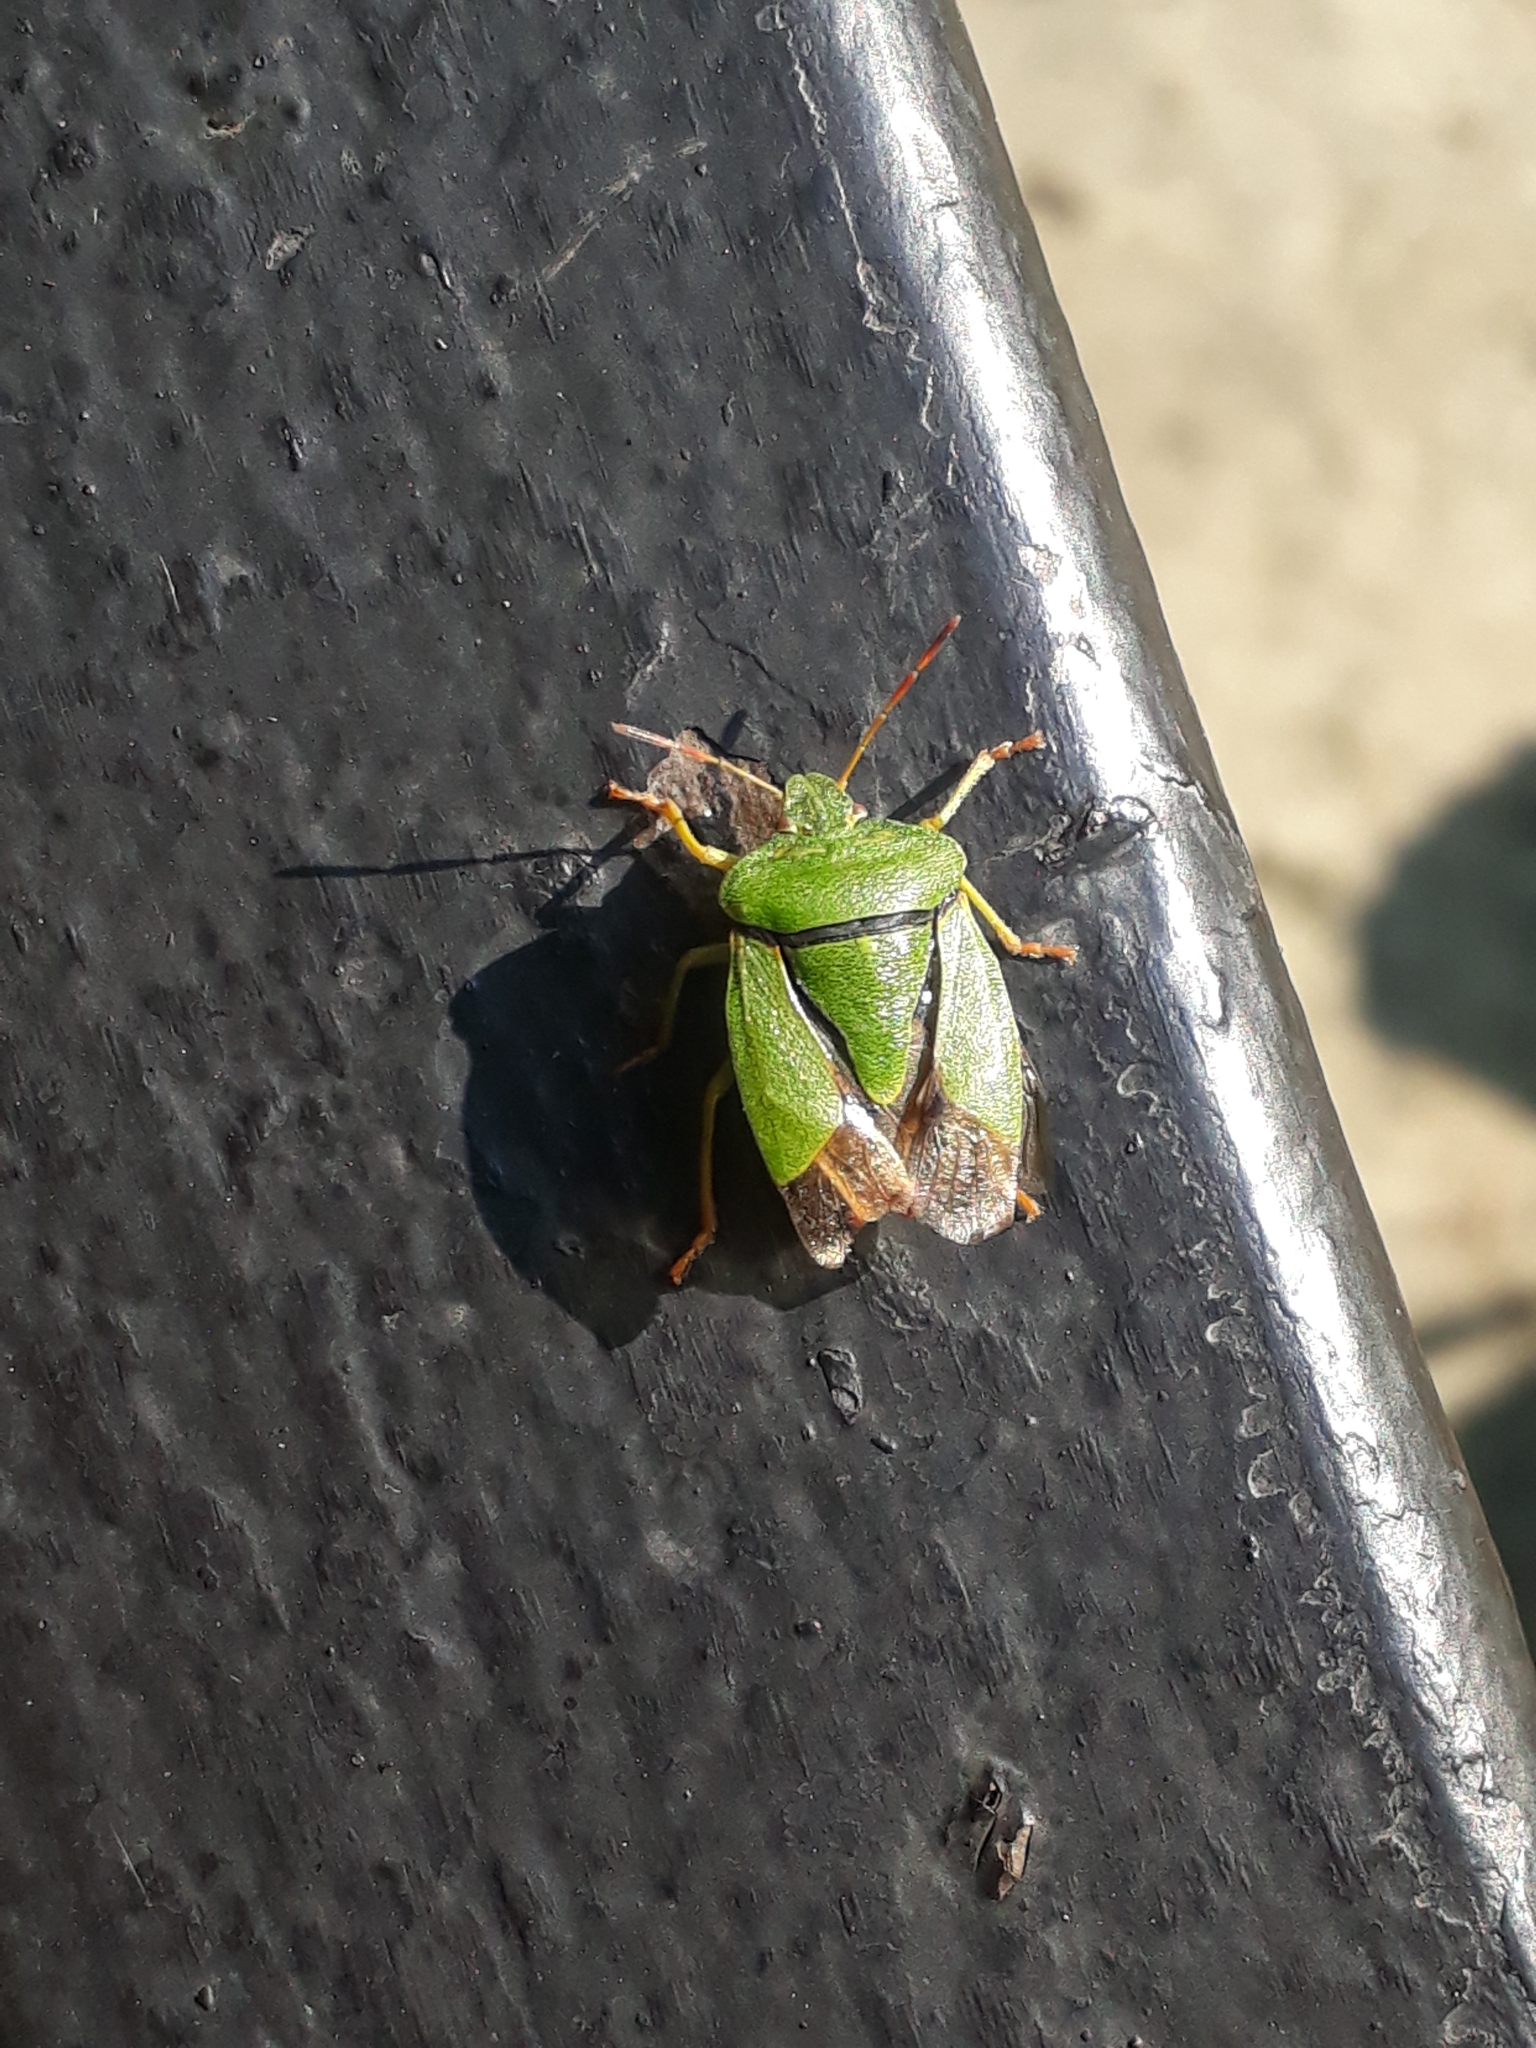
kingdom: Animalia
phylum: Arthropoda
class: Insecta
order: Hemiptera
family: Pentatomidae
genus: Palomena
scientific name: Palomena prasina
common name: Green shieldbug
